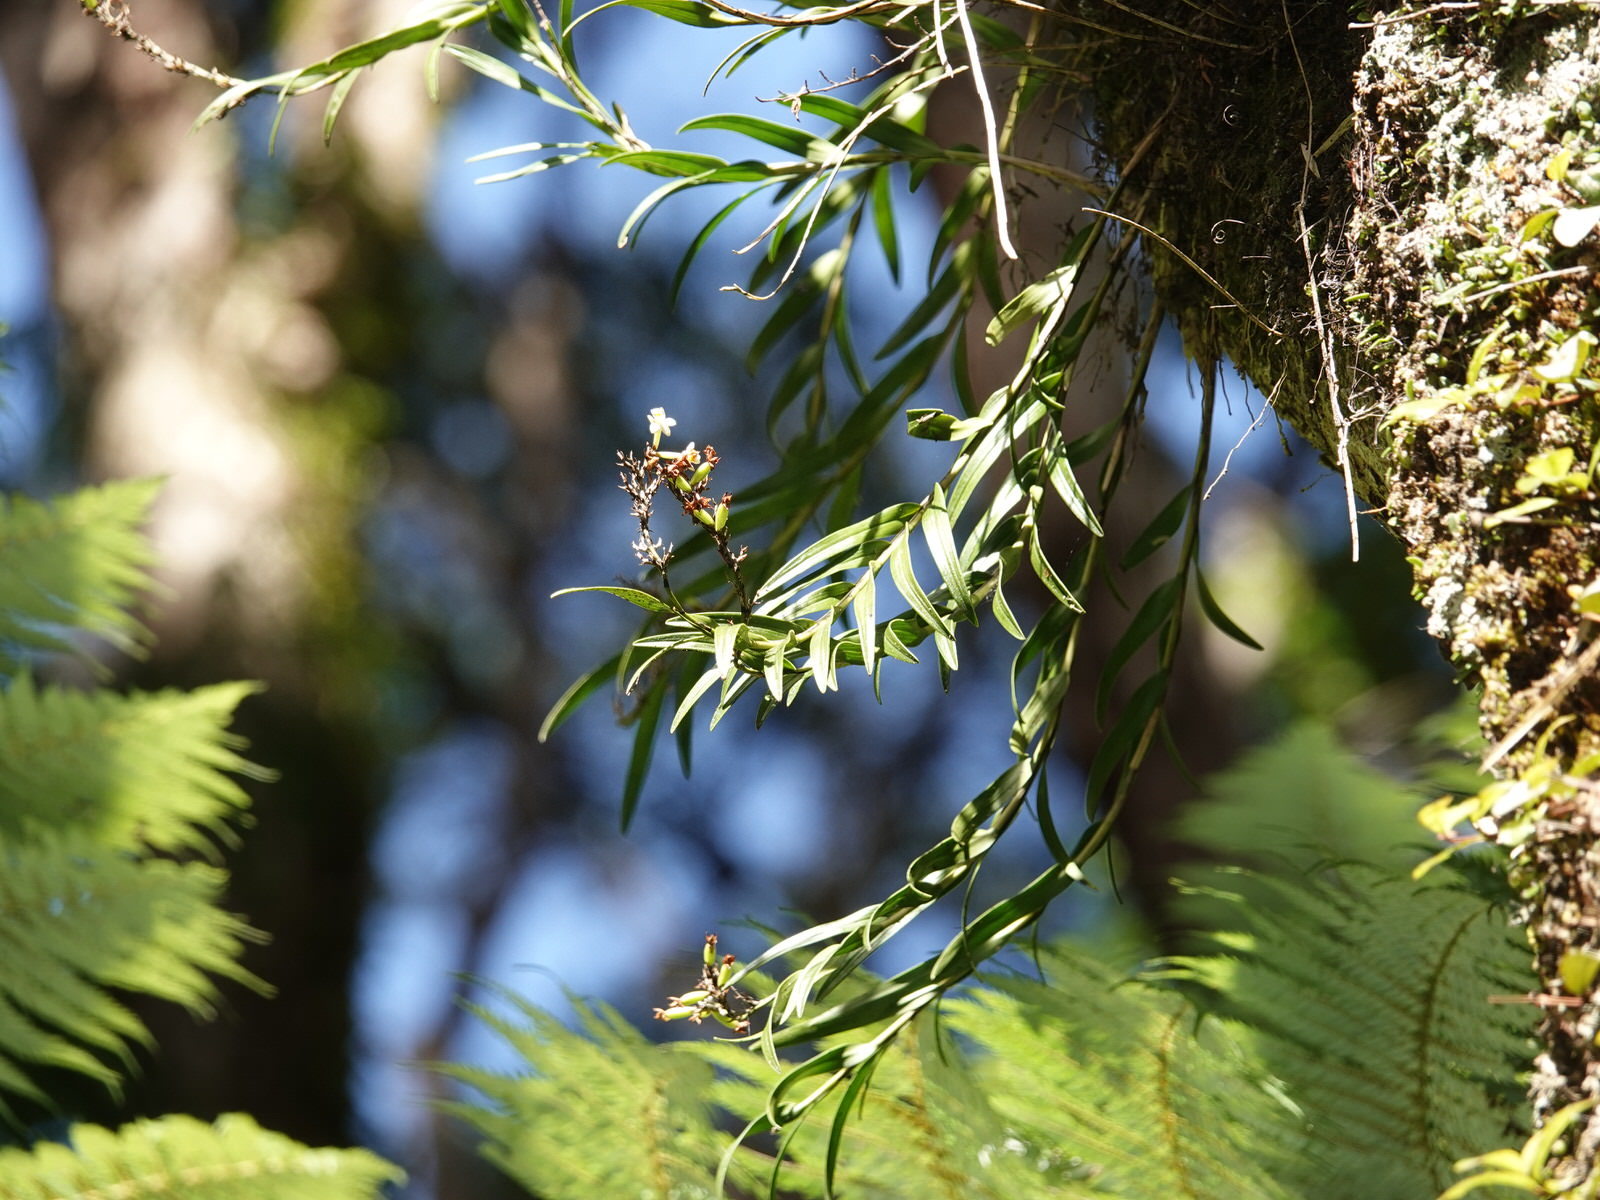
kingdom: Plantae
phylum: Tracheophyta
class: Liliopsida
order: Asparagales
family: Orchidaceae
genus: Earina
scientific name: Earina autumnalis
